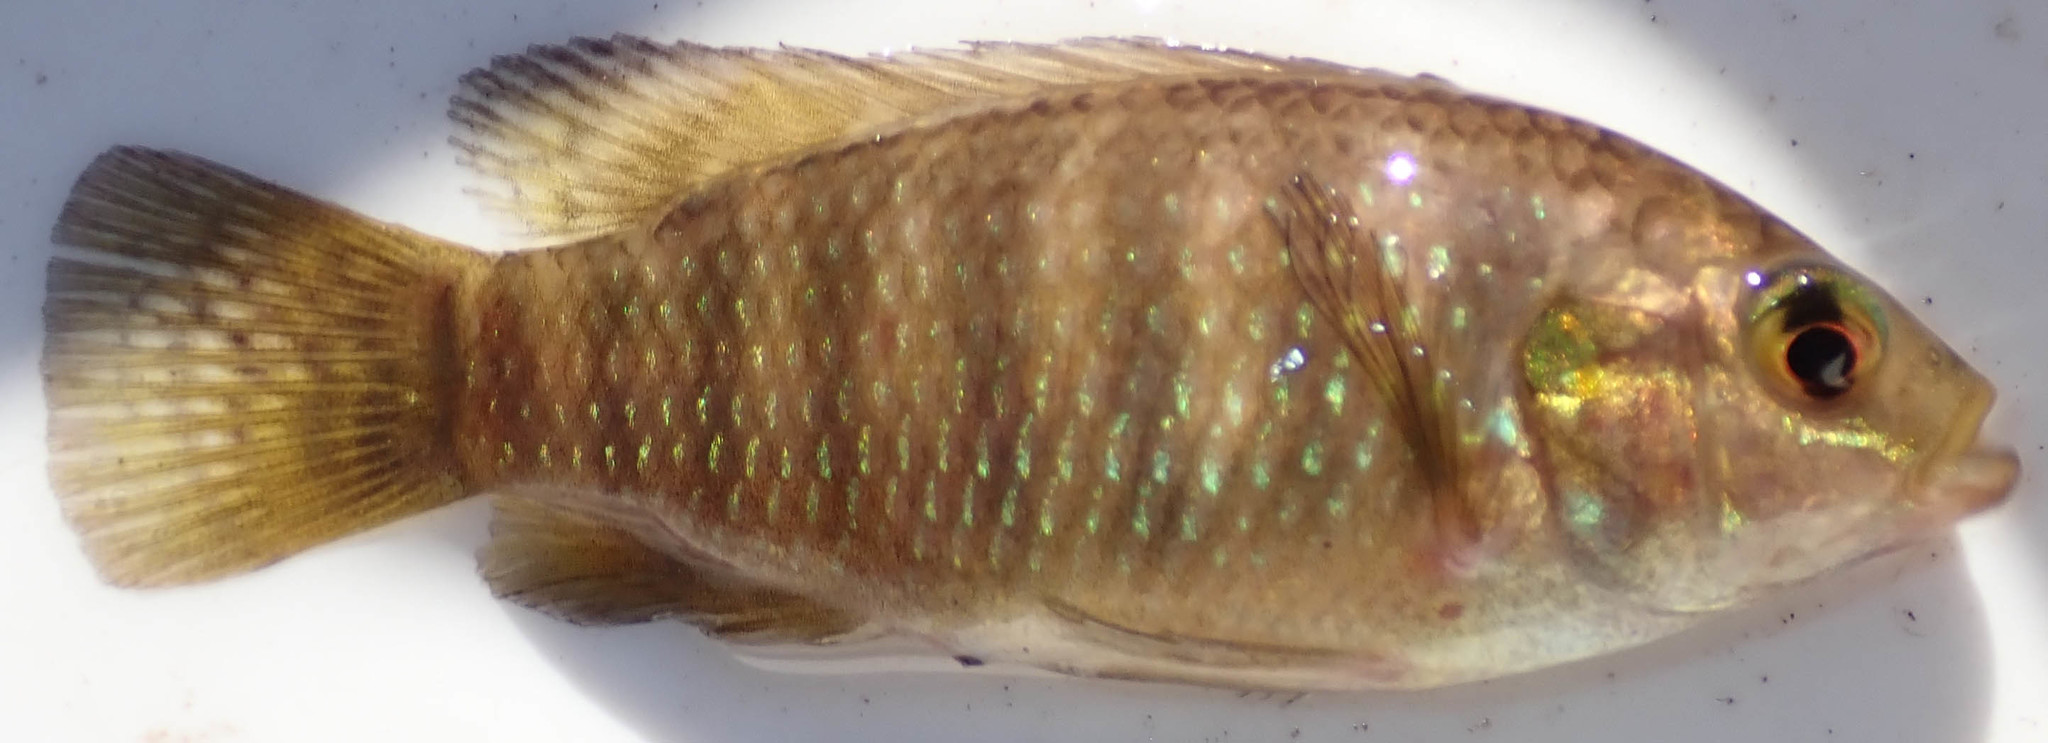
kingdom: Animalia
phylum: Chordata
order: Perciformes
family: Cichlidae
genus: Tilapia
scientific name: Tilapia ruweti
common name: Okavango tilapia
